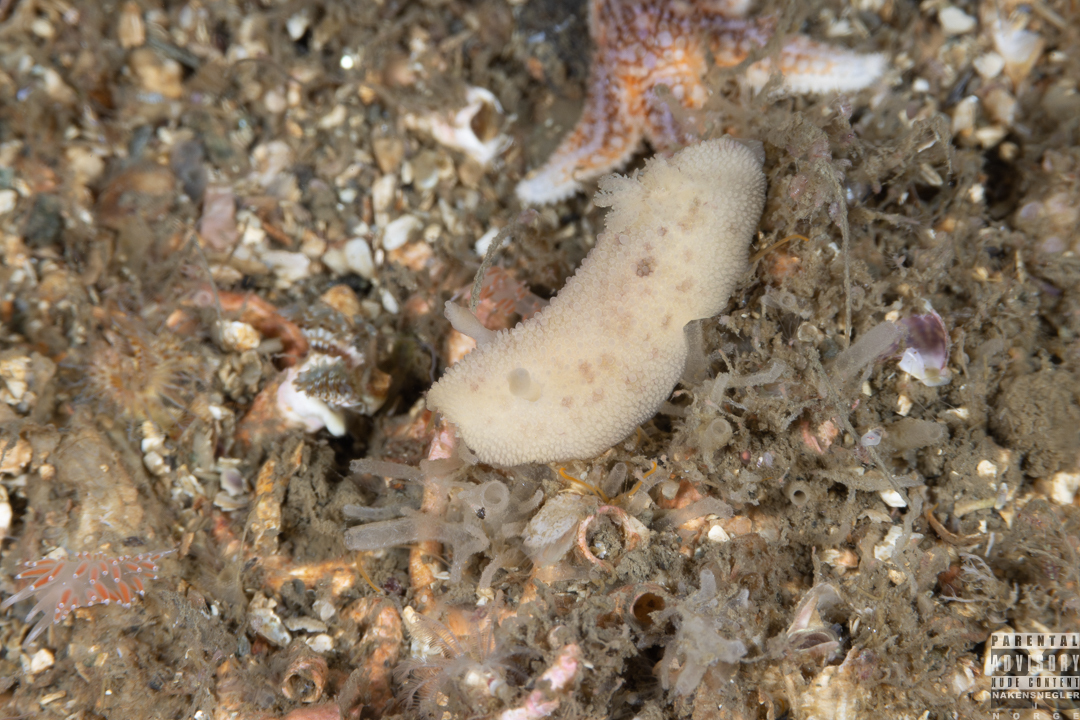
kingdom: Animalia
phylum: Mollusca
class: Gastropoda
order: Nudibranchia
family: Dorididae
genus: Doris
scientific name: Doris pseudoargus
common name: Sea lemon
